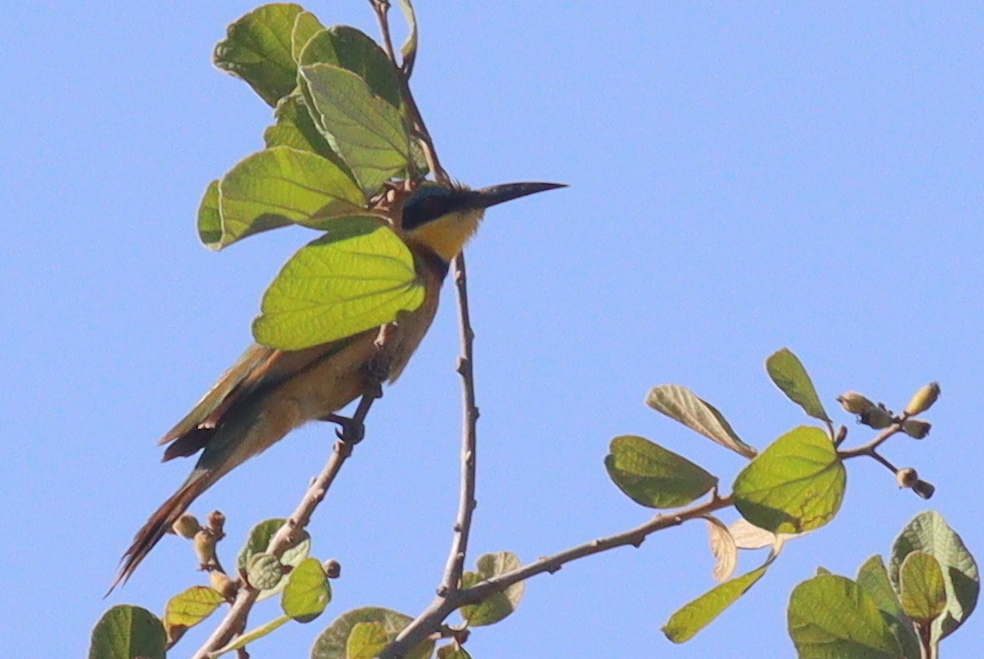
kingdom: Animalia
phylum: Chordata
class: Aves
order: Coraciiformes
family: Meropidae
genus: Merops
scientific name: Merops pusillus
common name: Little bee-eater
